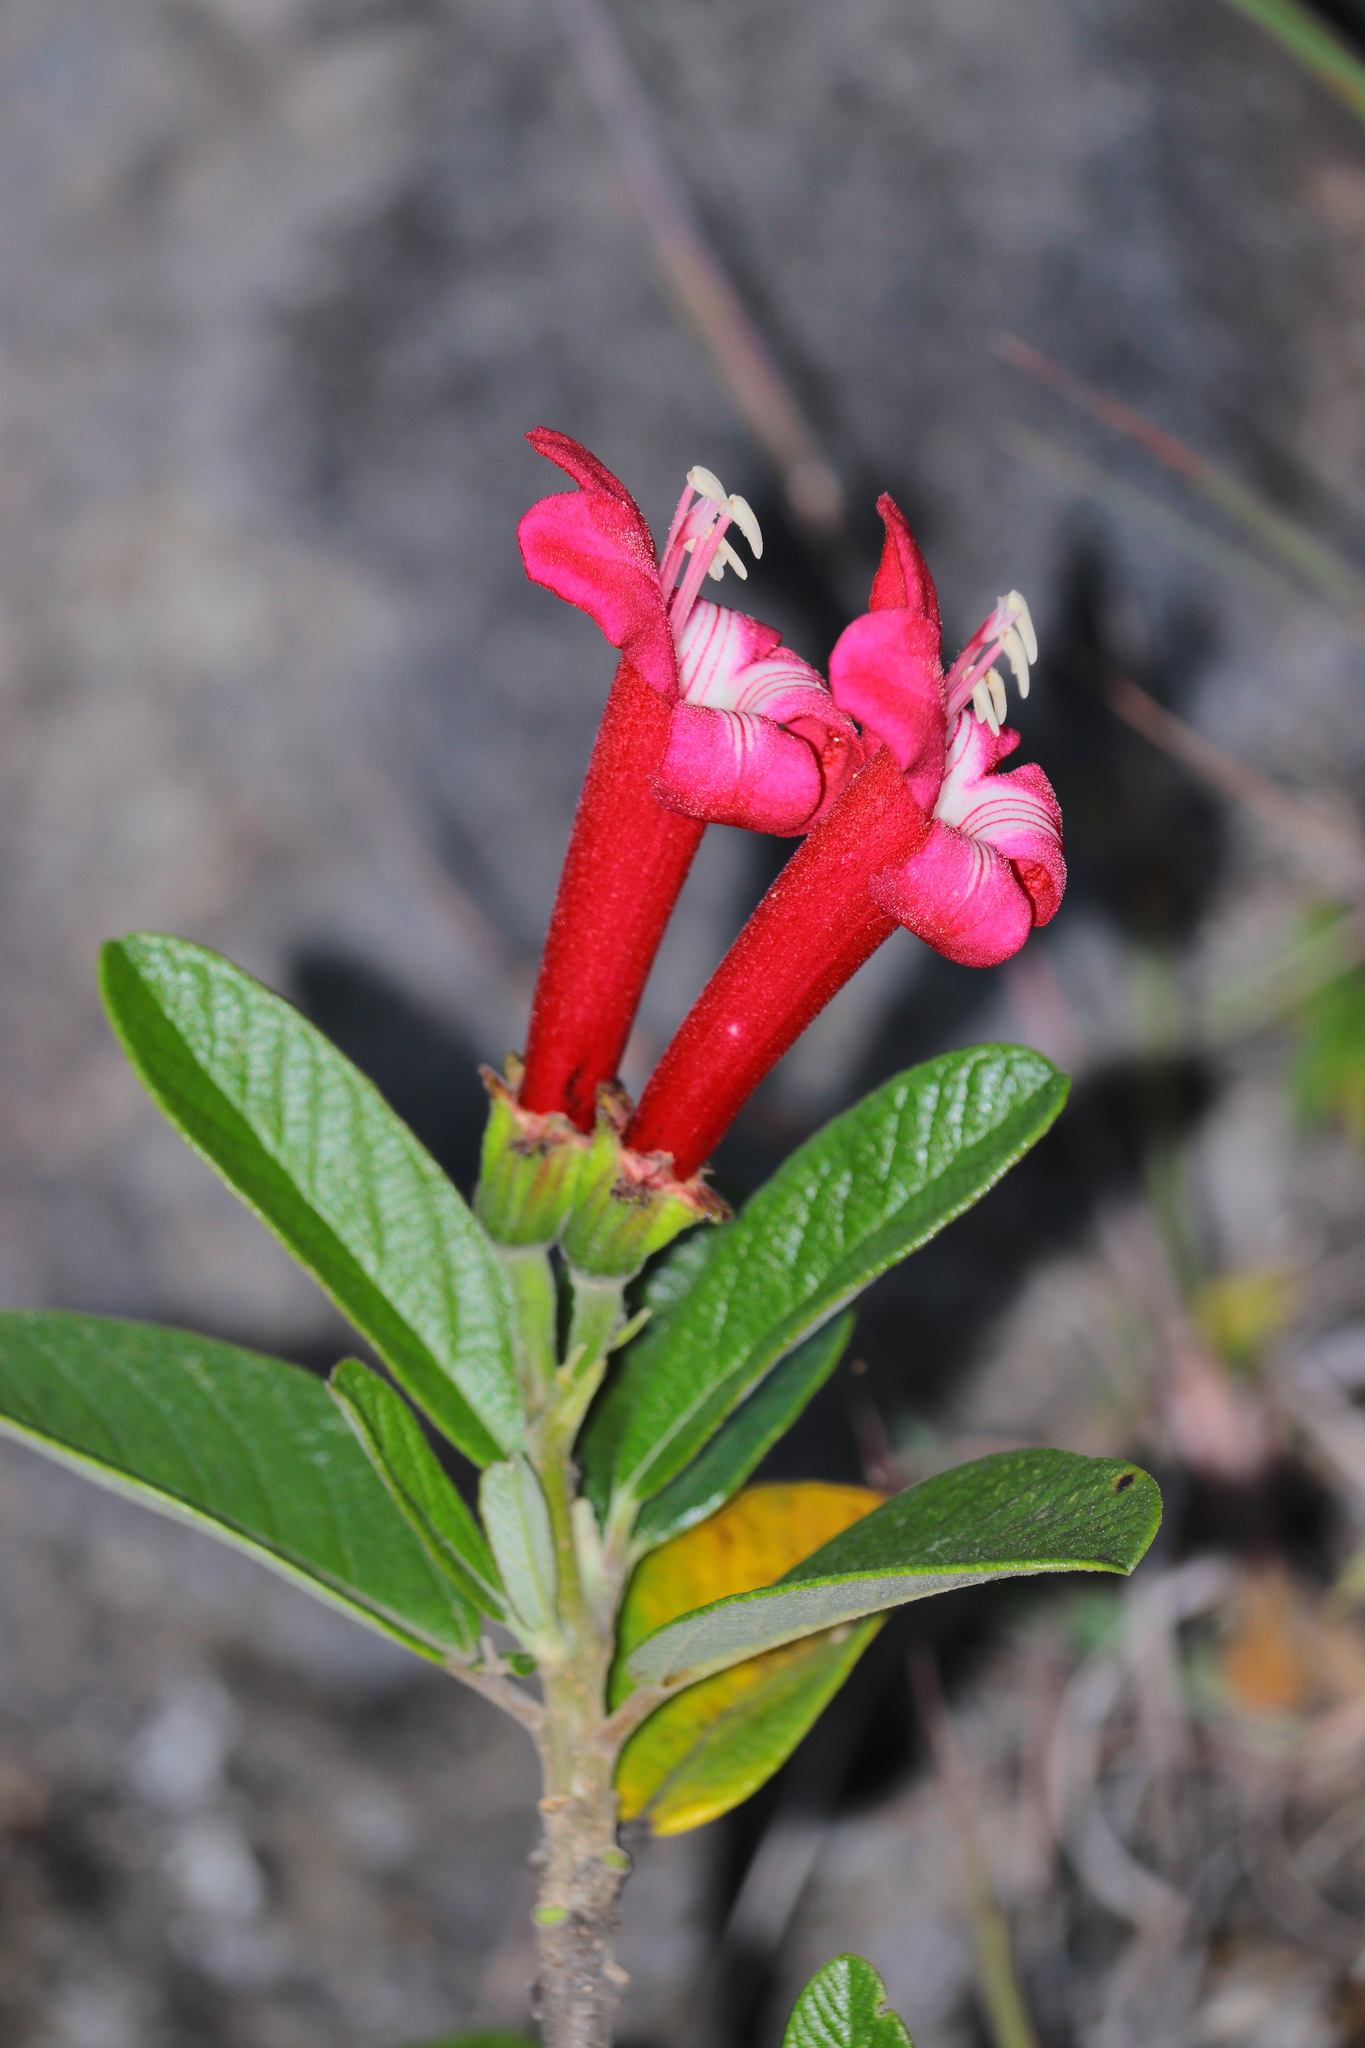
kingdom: Plantae
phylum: Tracheophyta
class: Magnoliopsida
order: Lamiales
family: Bignoniaceae
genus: Delostoma
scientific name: Delostoma lobbii
